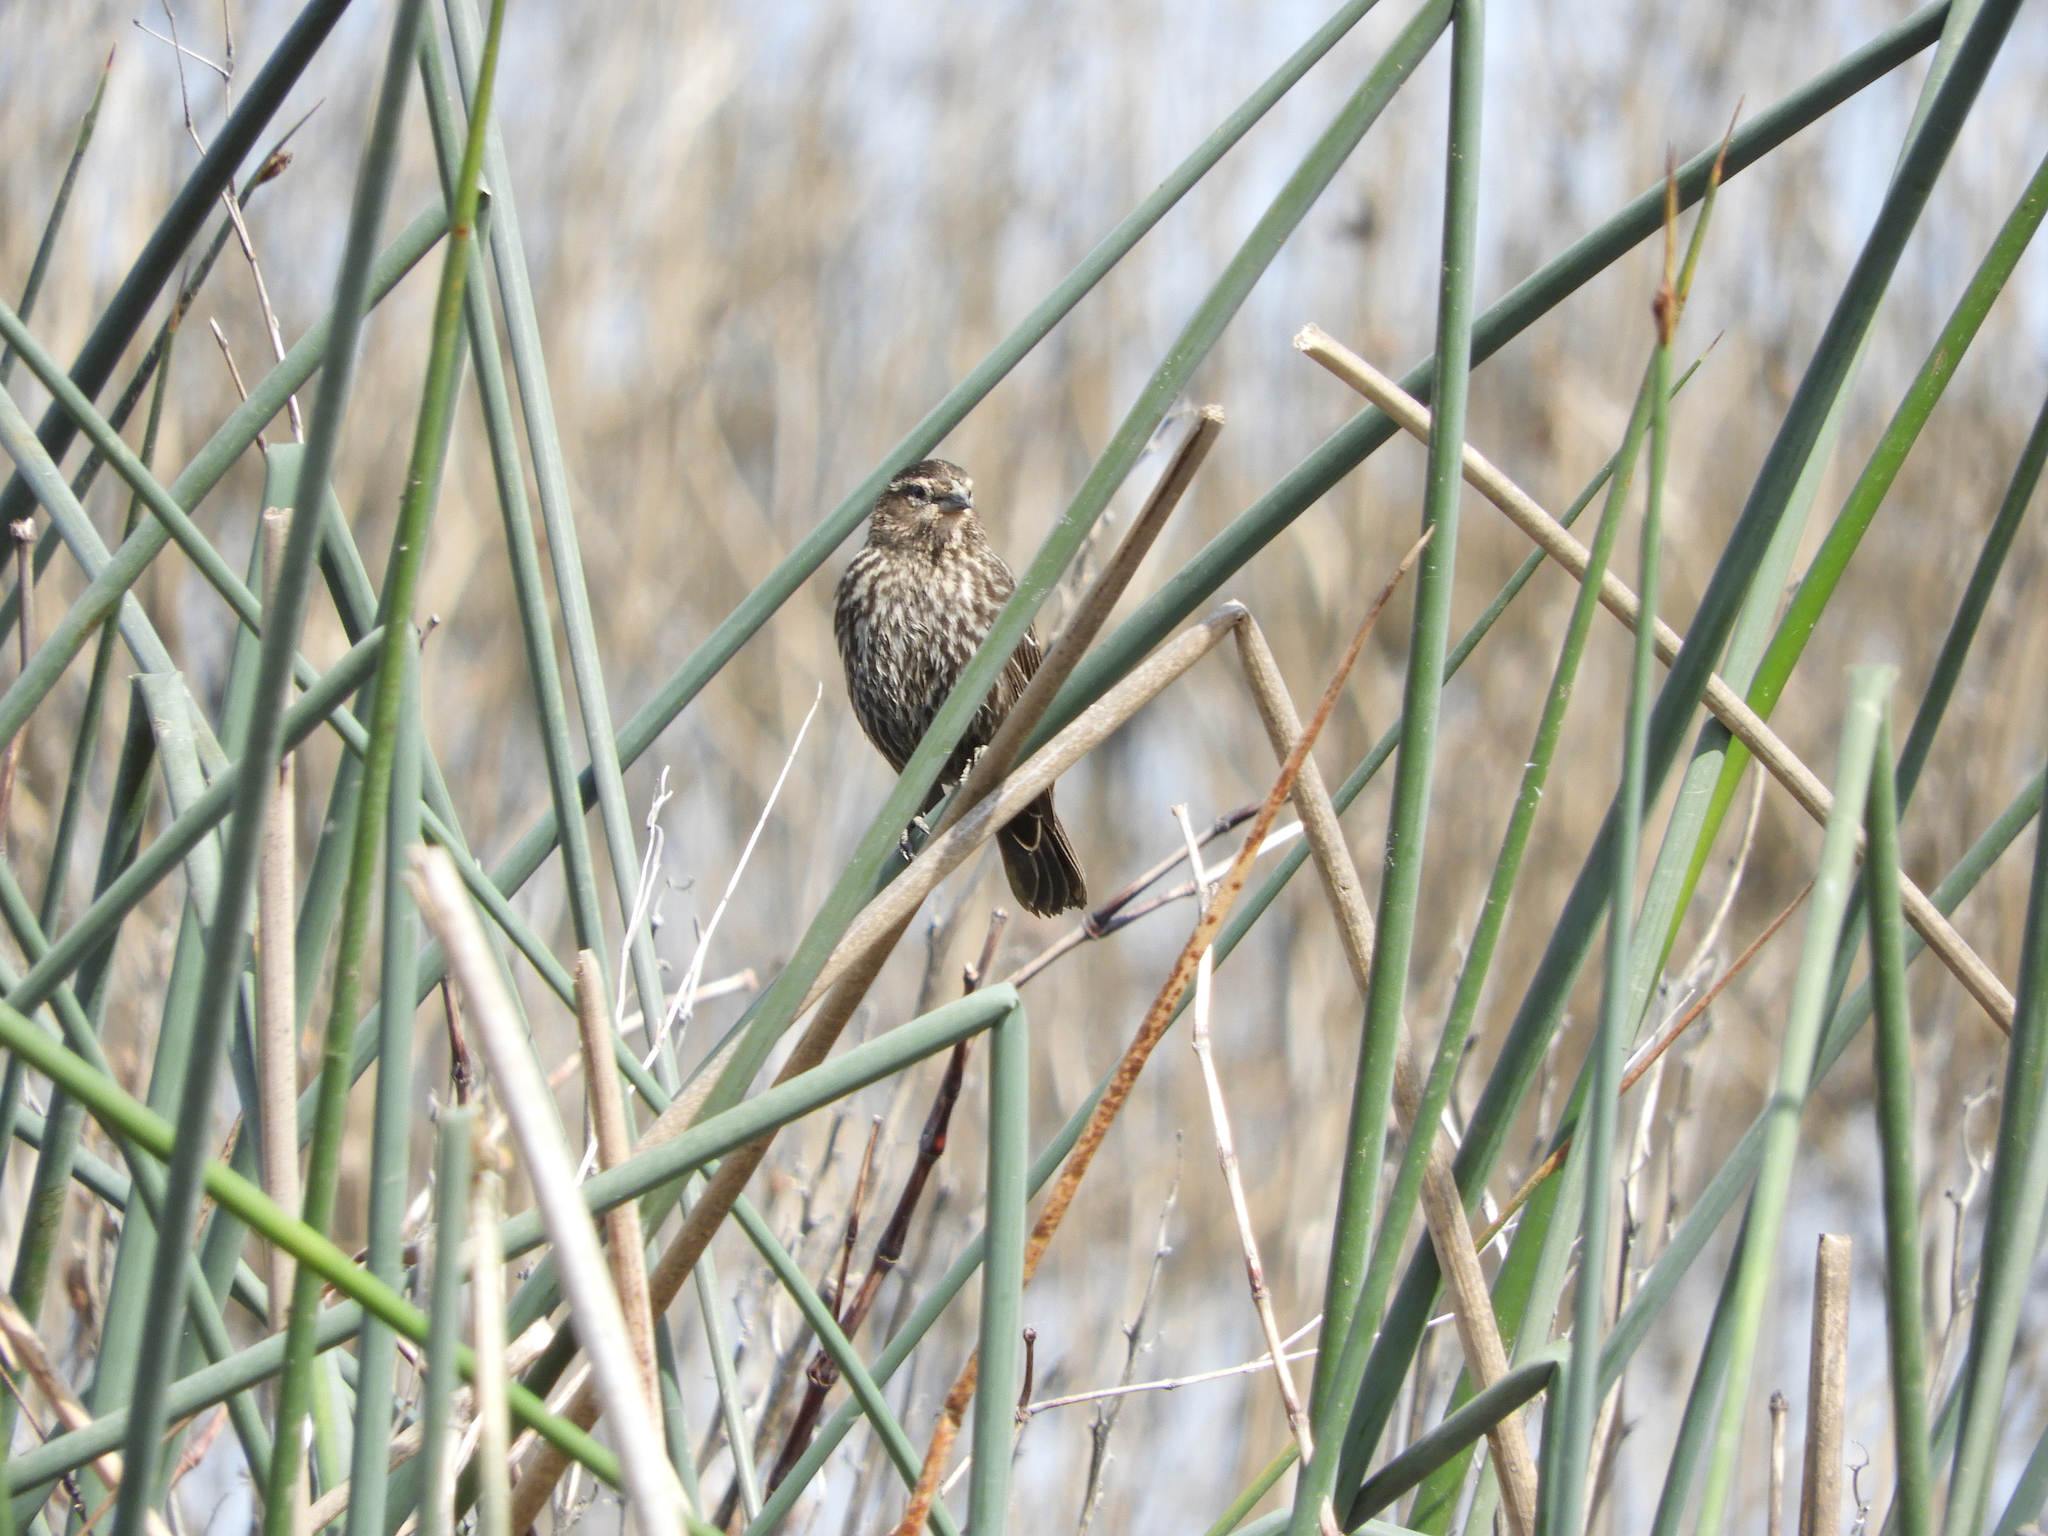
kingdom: Animalia
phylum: Chordata
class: Aves
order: Passeriformes
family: Icteridae
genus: Agelaius
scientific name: Agelaius phoeniceus
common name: Red-winged blackbird
